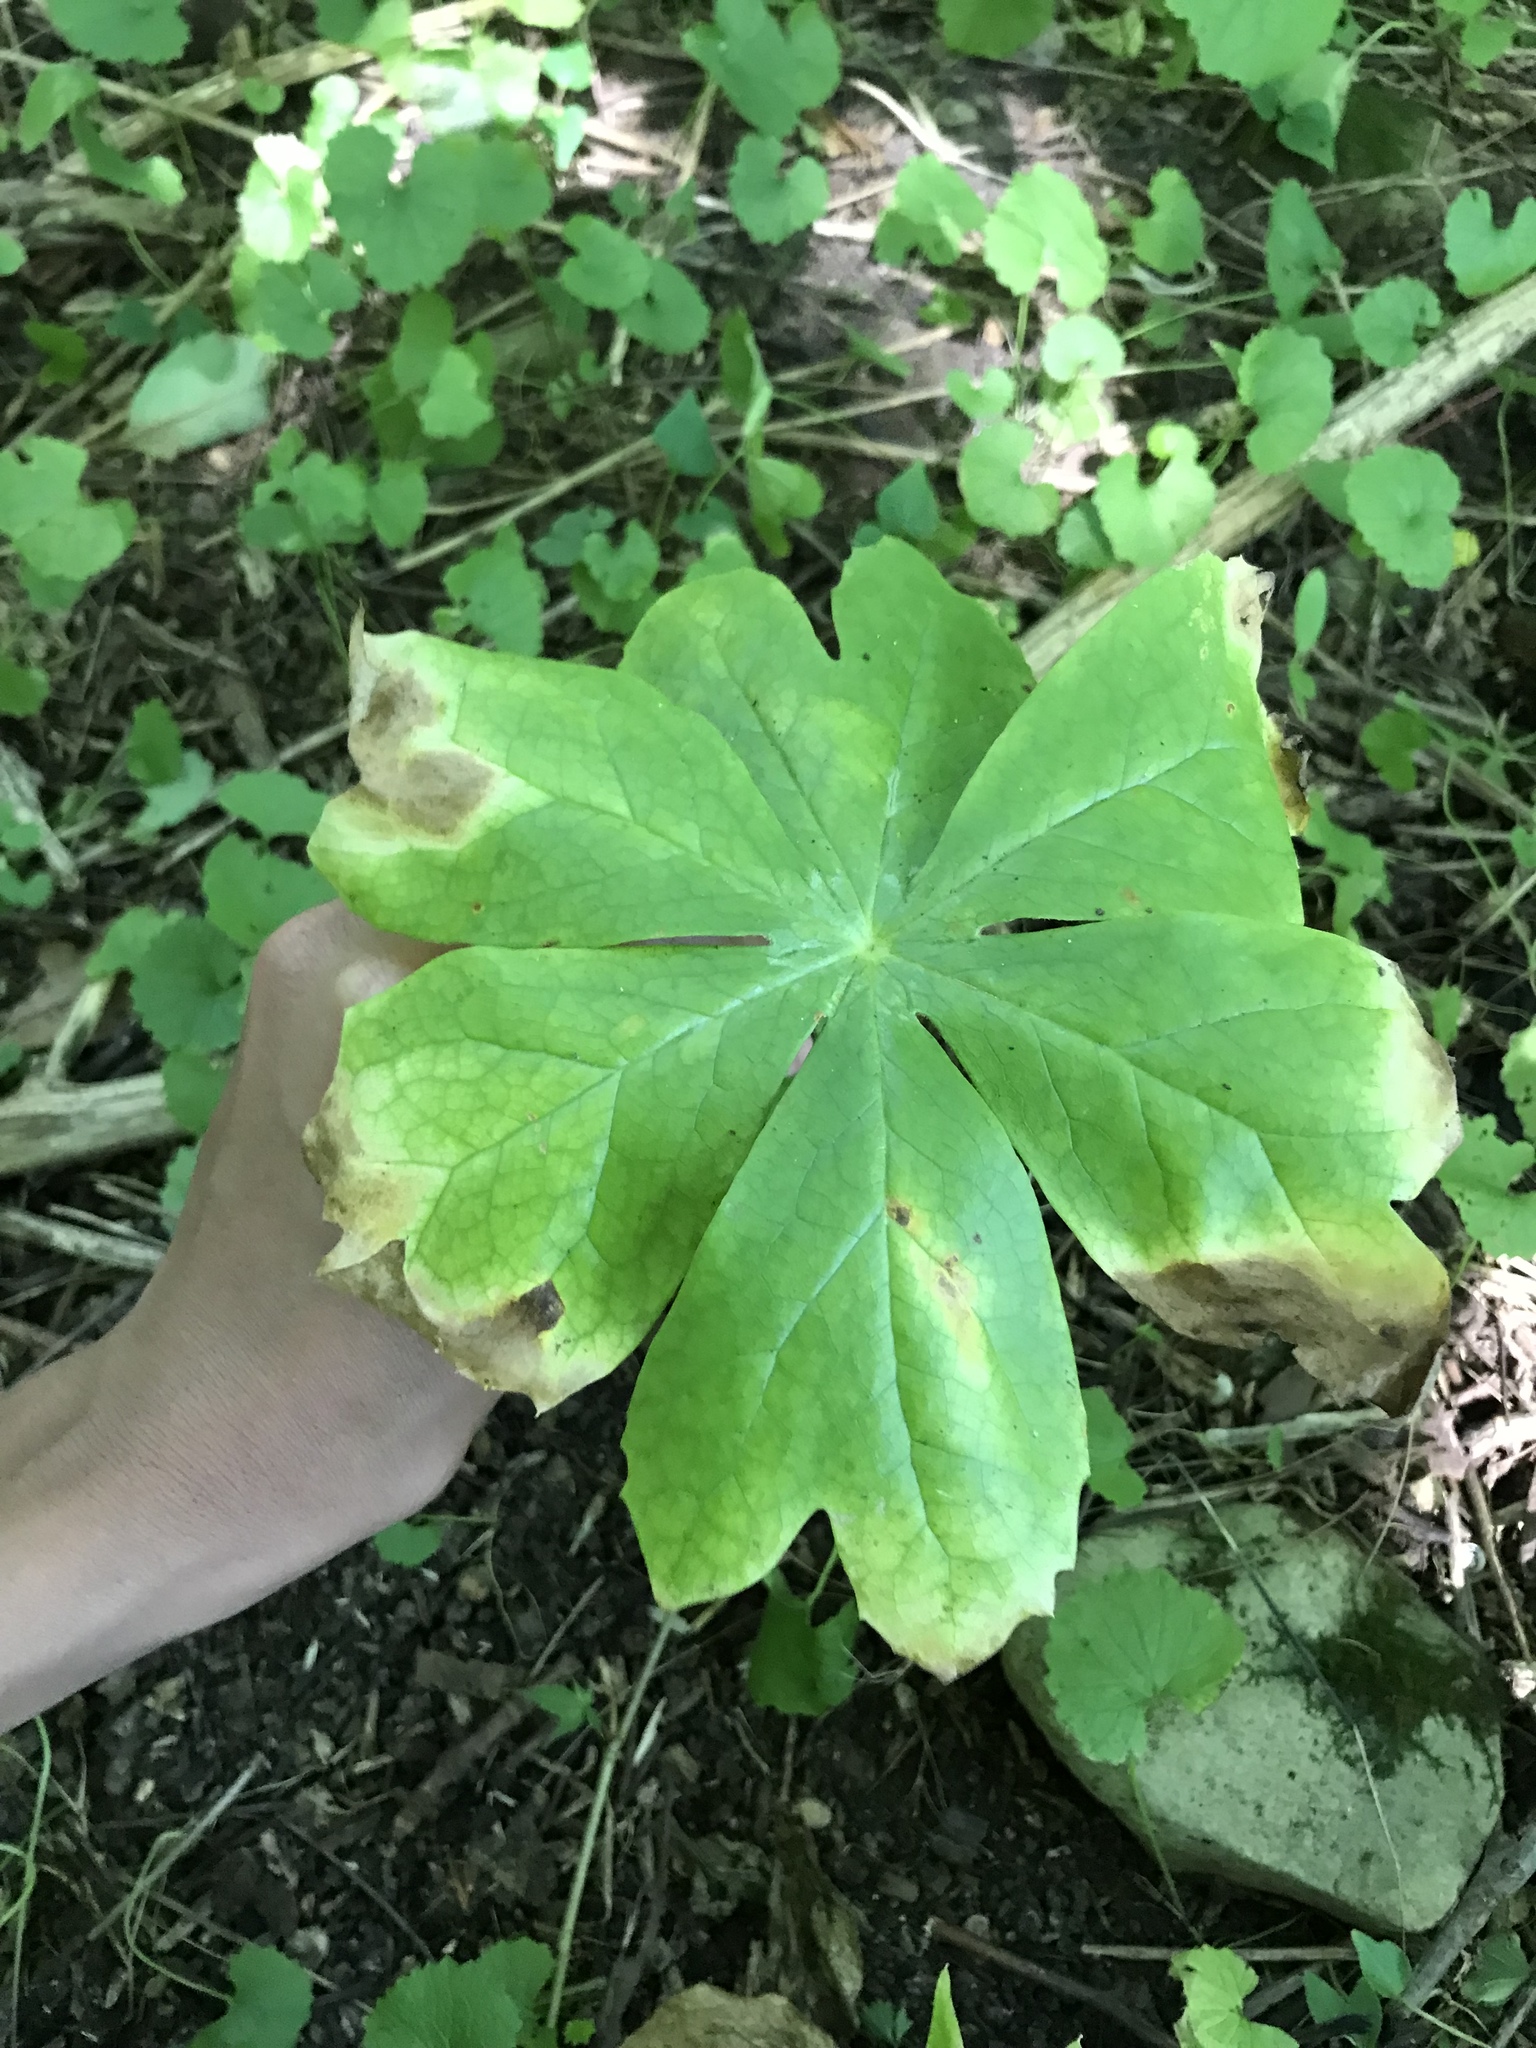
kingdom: Plantae
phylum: Tracheophyta
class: Magnoliopsida
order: Ranunculales
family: Berberidaceae
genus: Podophyllum
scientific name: Podophyllum peltatum
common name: Wild mandrake
